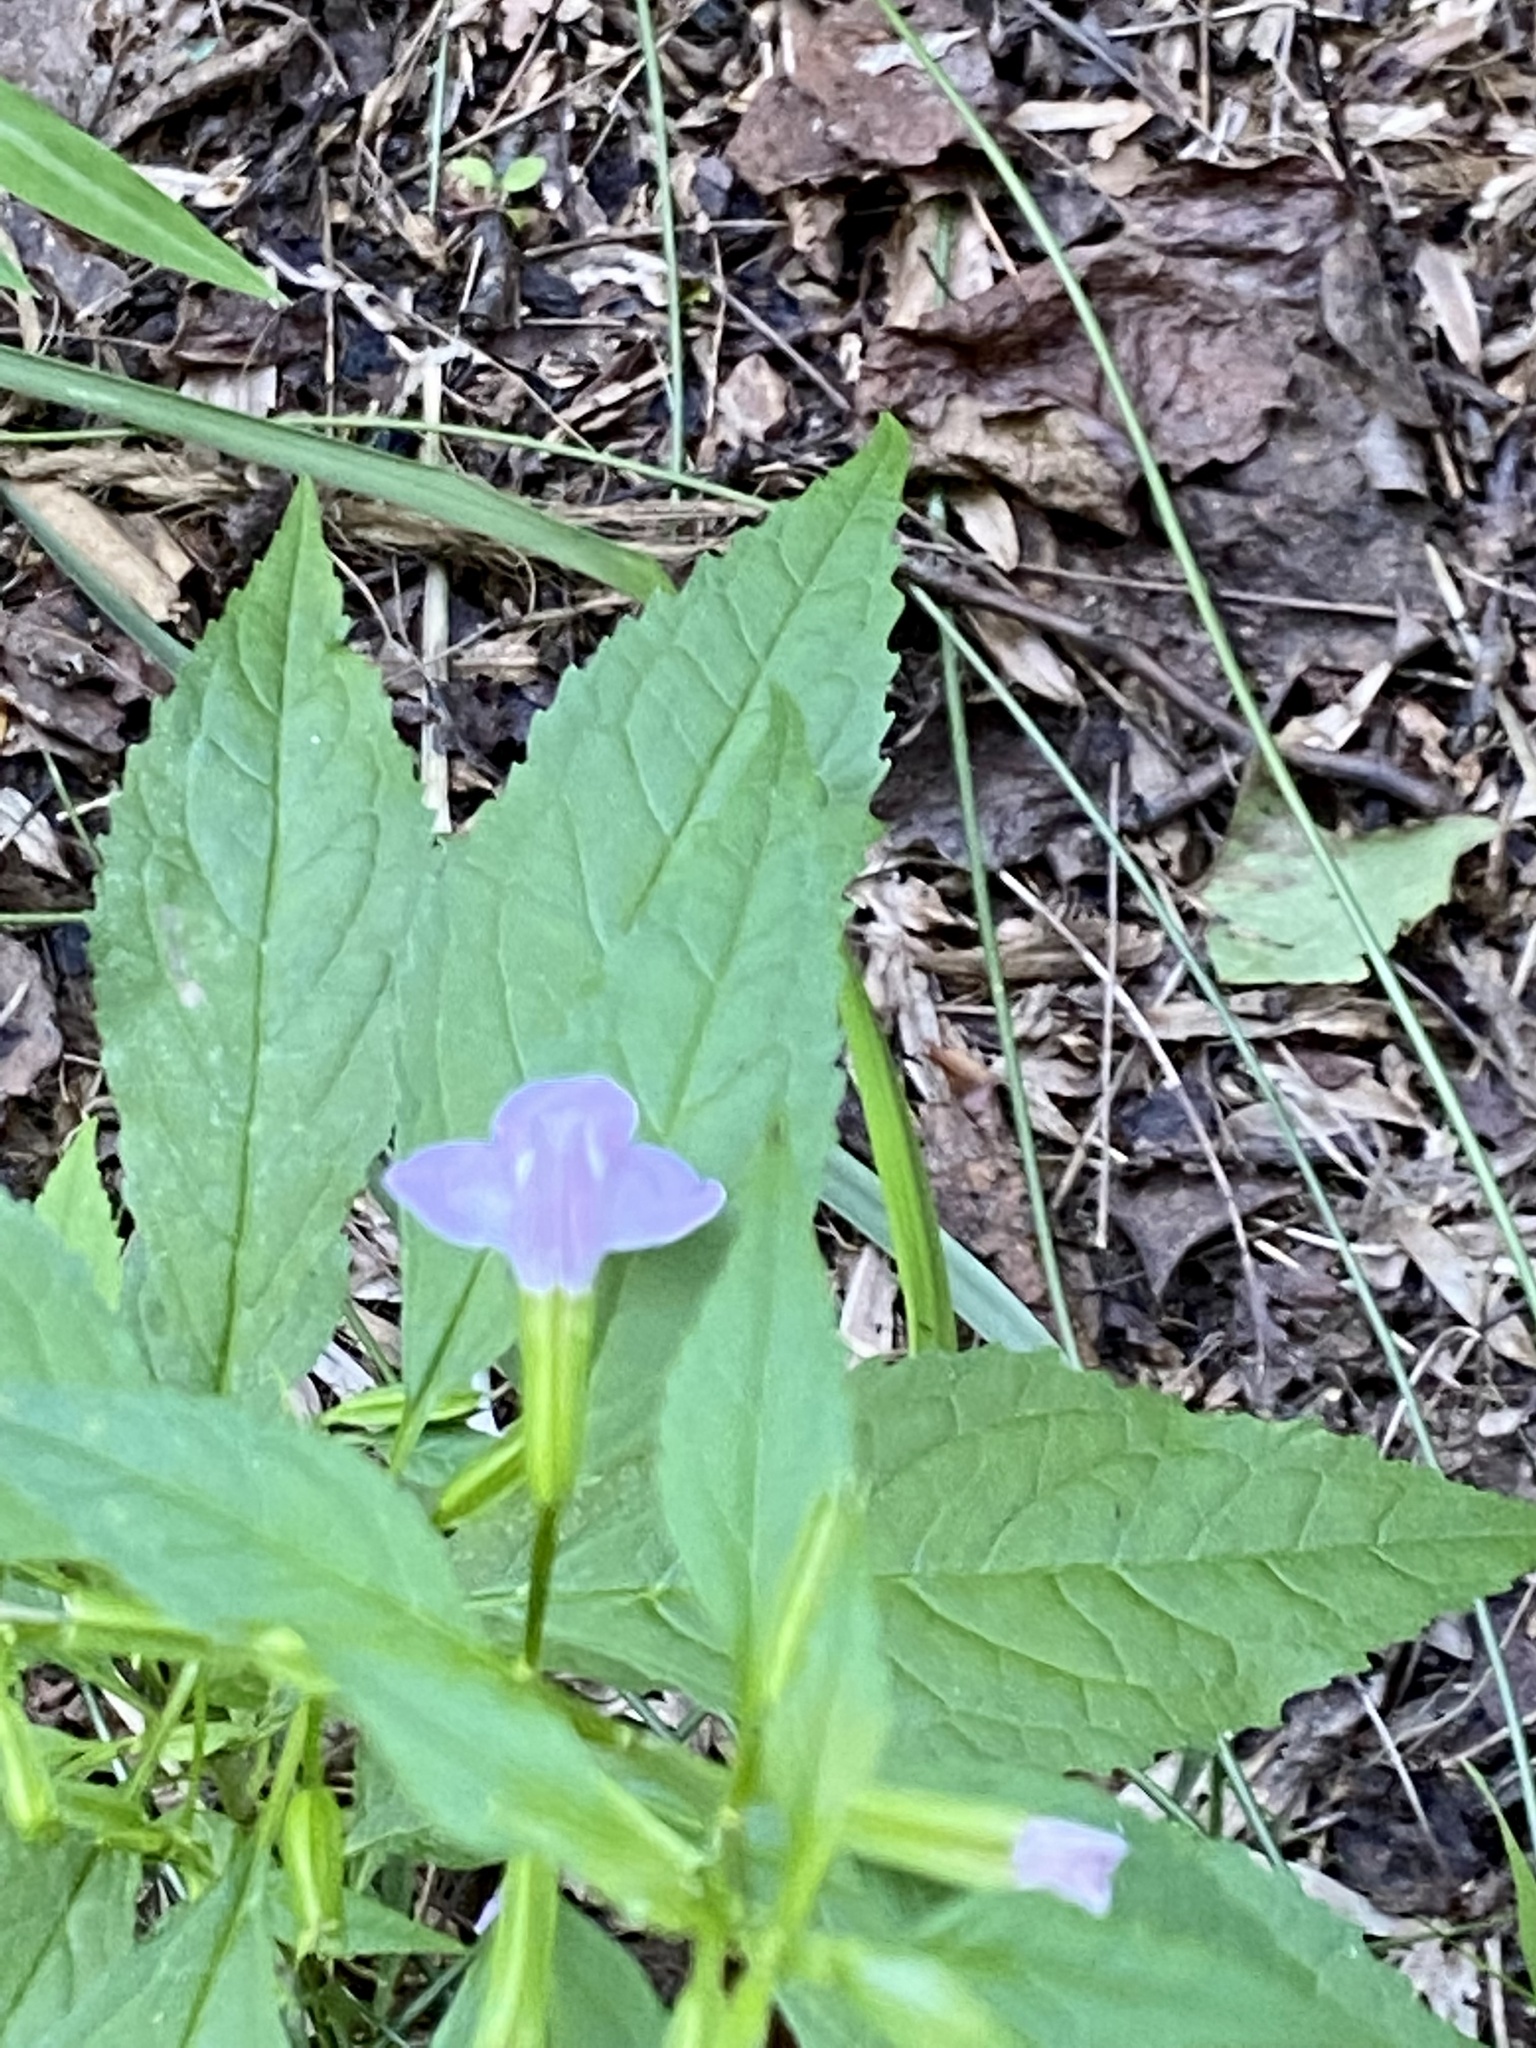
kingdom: Plantae
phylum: Tracheophyta
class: Magnoliopsida
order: Lamiales
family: Phrymaceae
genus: Mimulus
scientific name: Mimulus alatus
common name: Sharp-wing monkey-flower
